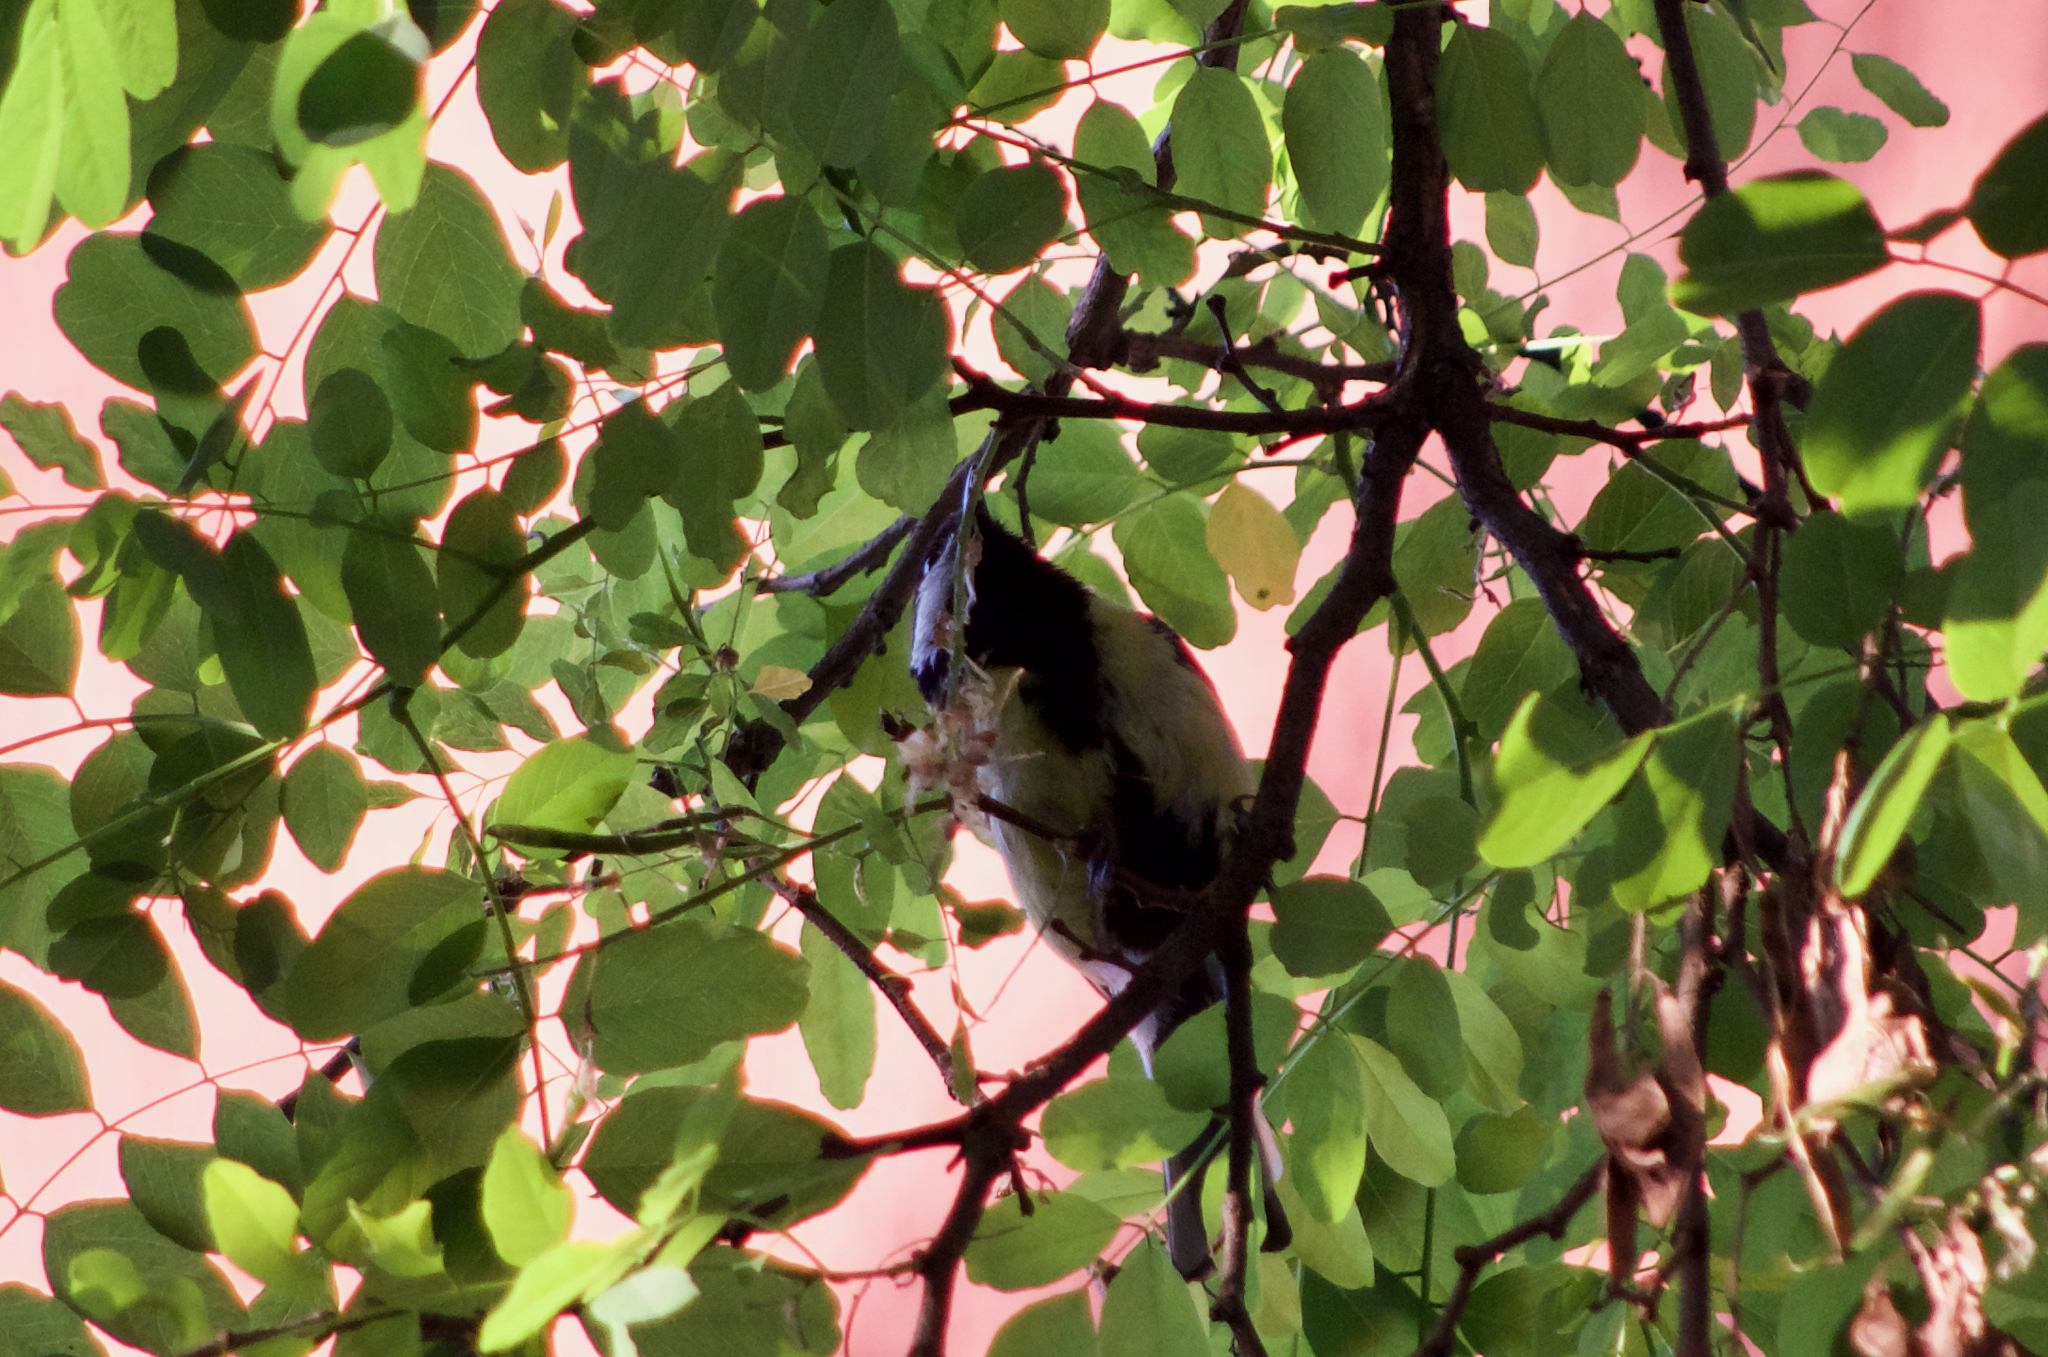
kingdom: Animalia
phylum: Chordata
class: Aves
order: Passeriformes
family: Paridae
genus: Parus
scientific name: Parus major
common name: Great tit
